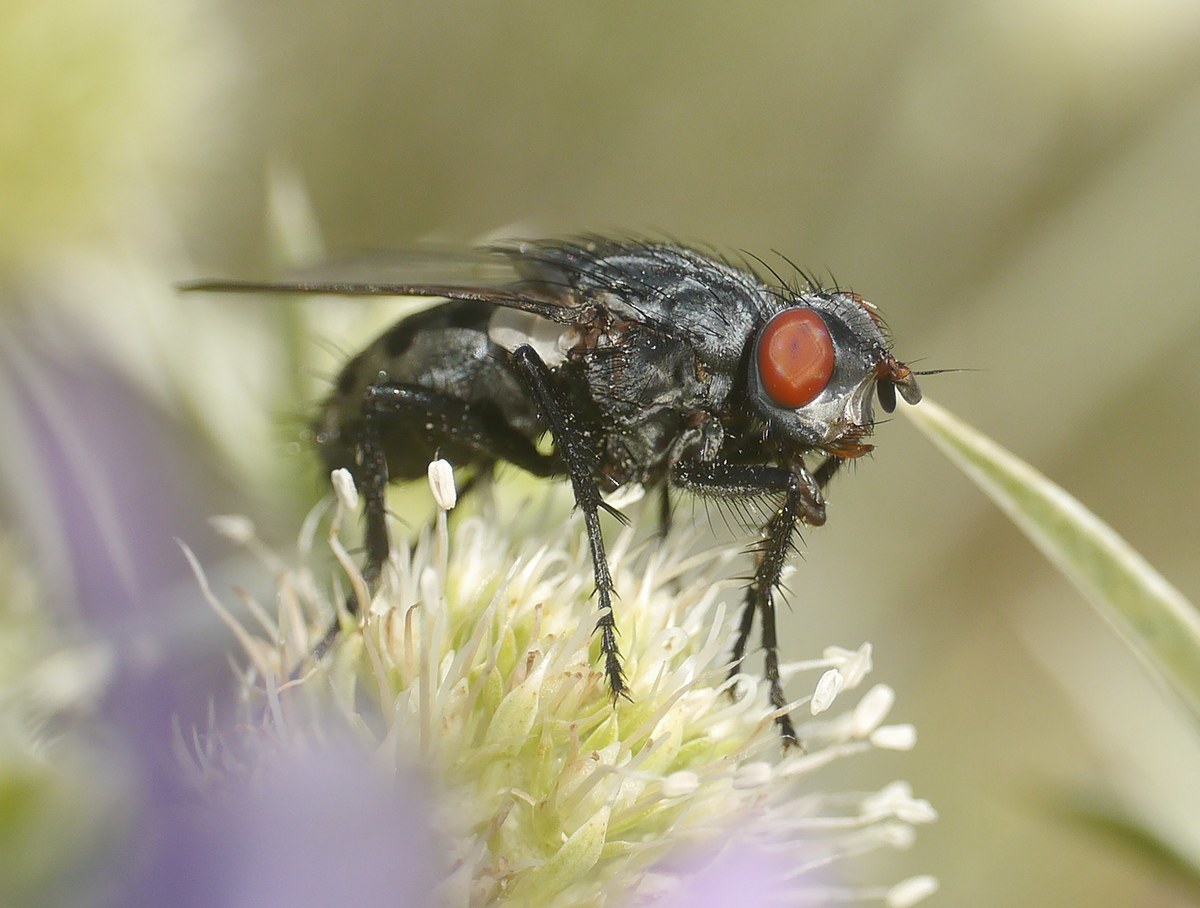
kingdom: Animalia
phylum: Arthropoda
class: Insecta
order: Diptera
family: Sarcophagidae
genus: Wohlfahrtia
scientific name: Wohlfahrtia vigil
